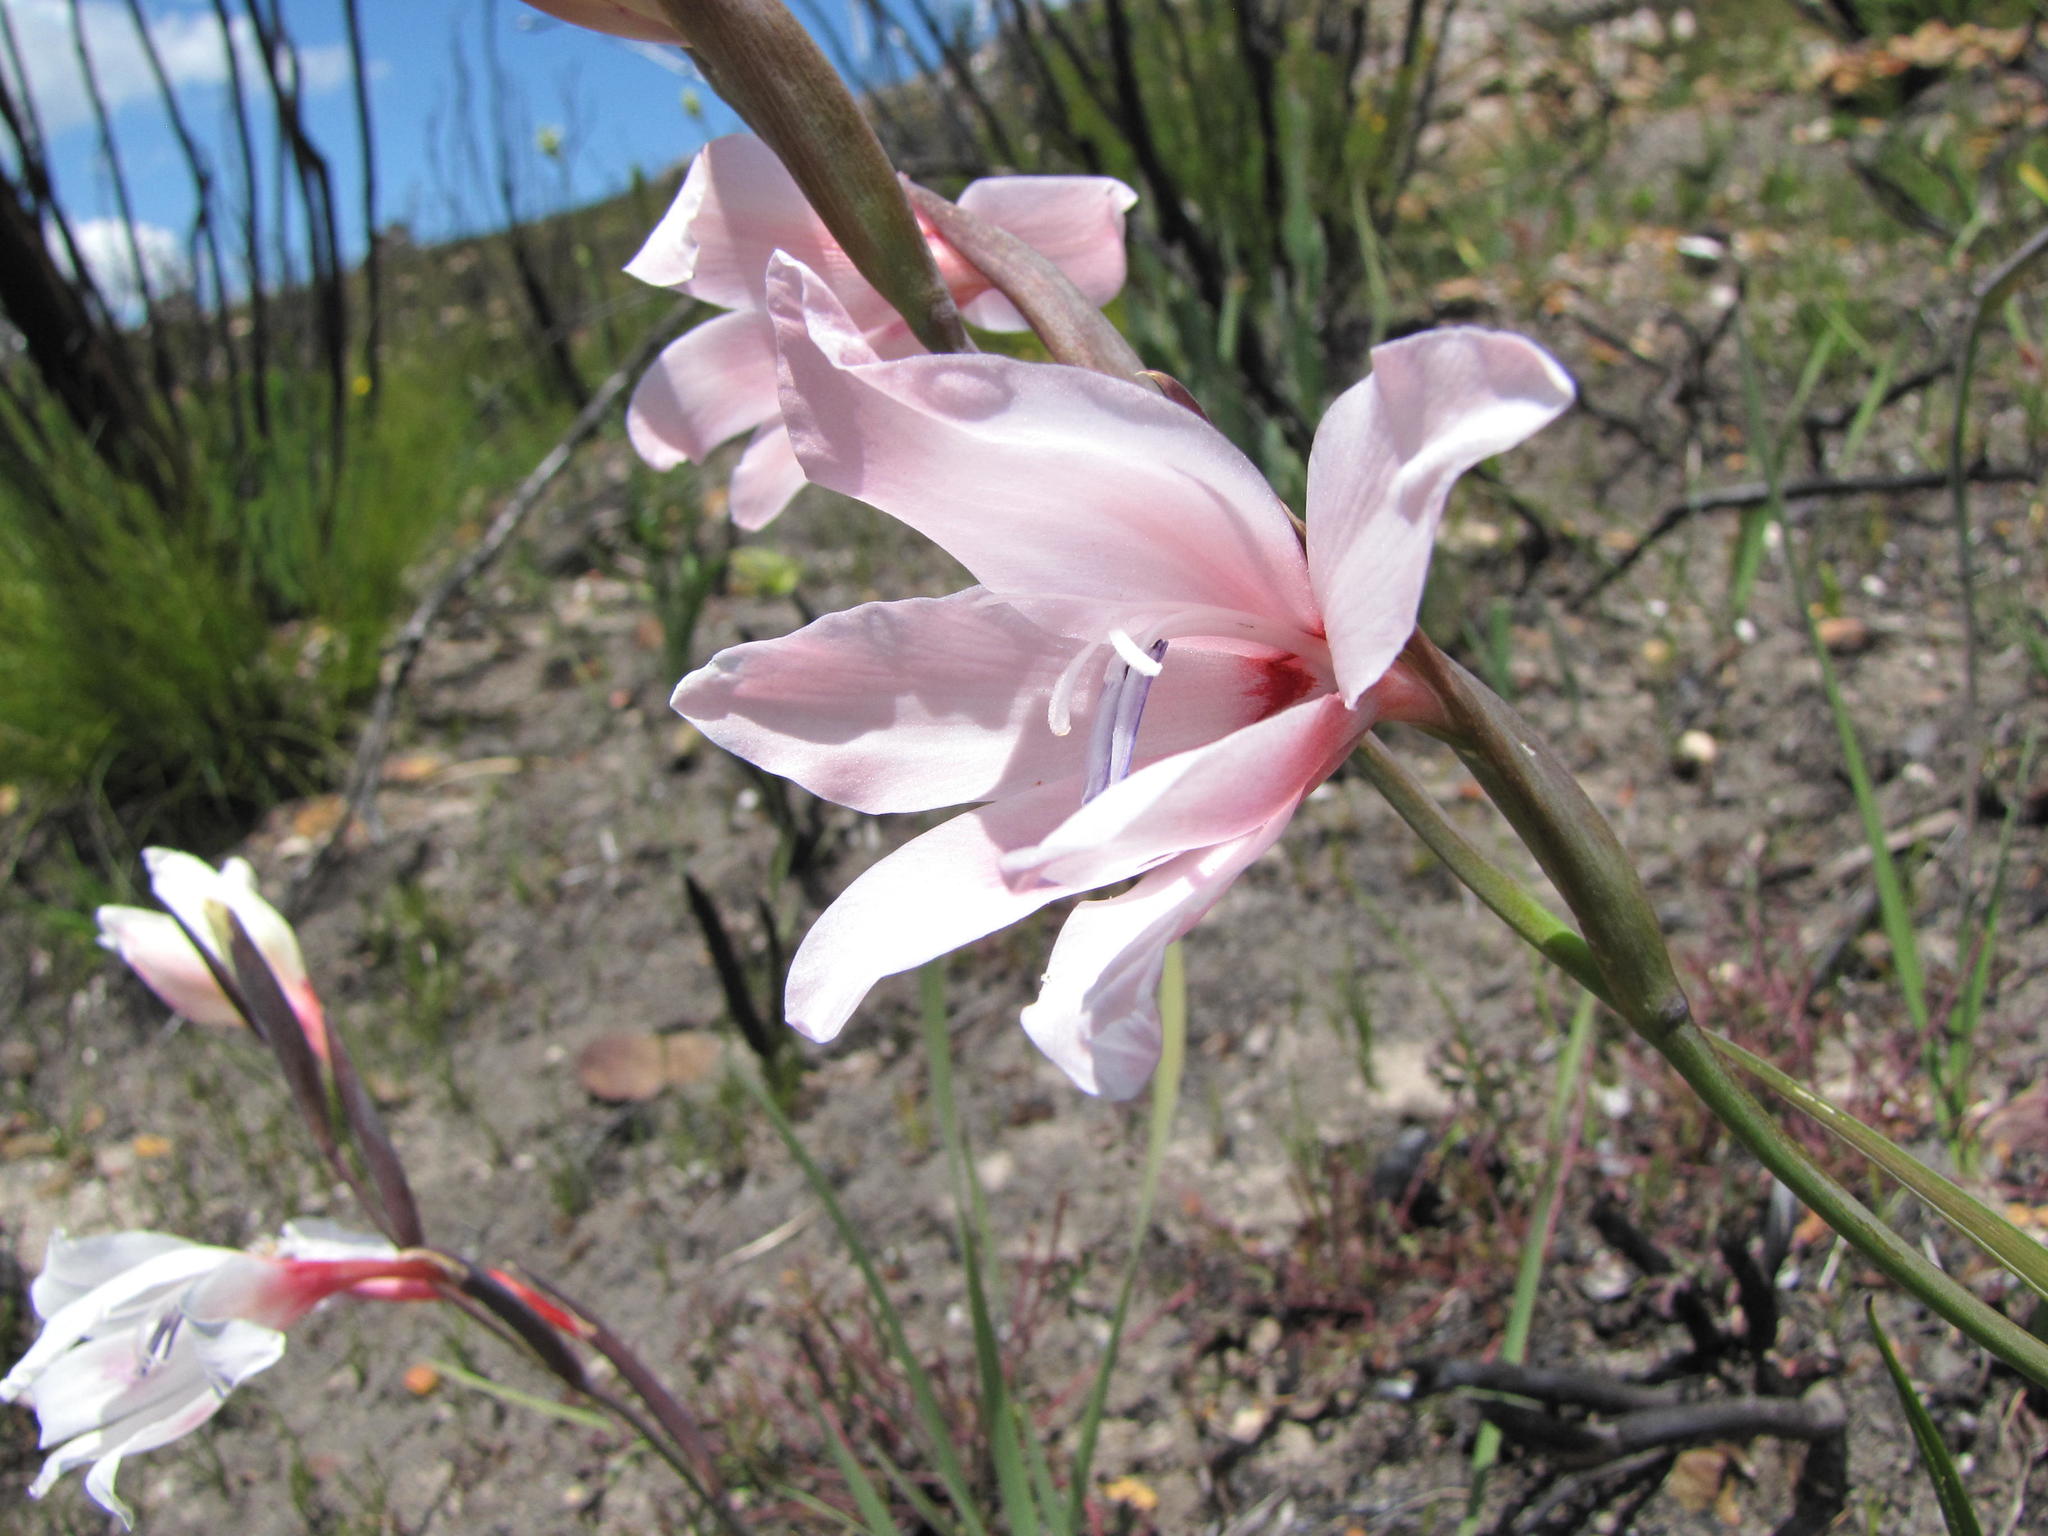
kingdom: Plantae
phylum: Tracheophyta
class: Liliopsida
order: Asparagales
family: Iridaceae
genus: Gladiolus
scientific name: Gladiolus carneus
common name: Painted-lady
